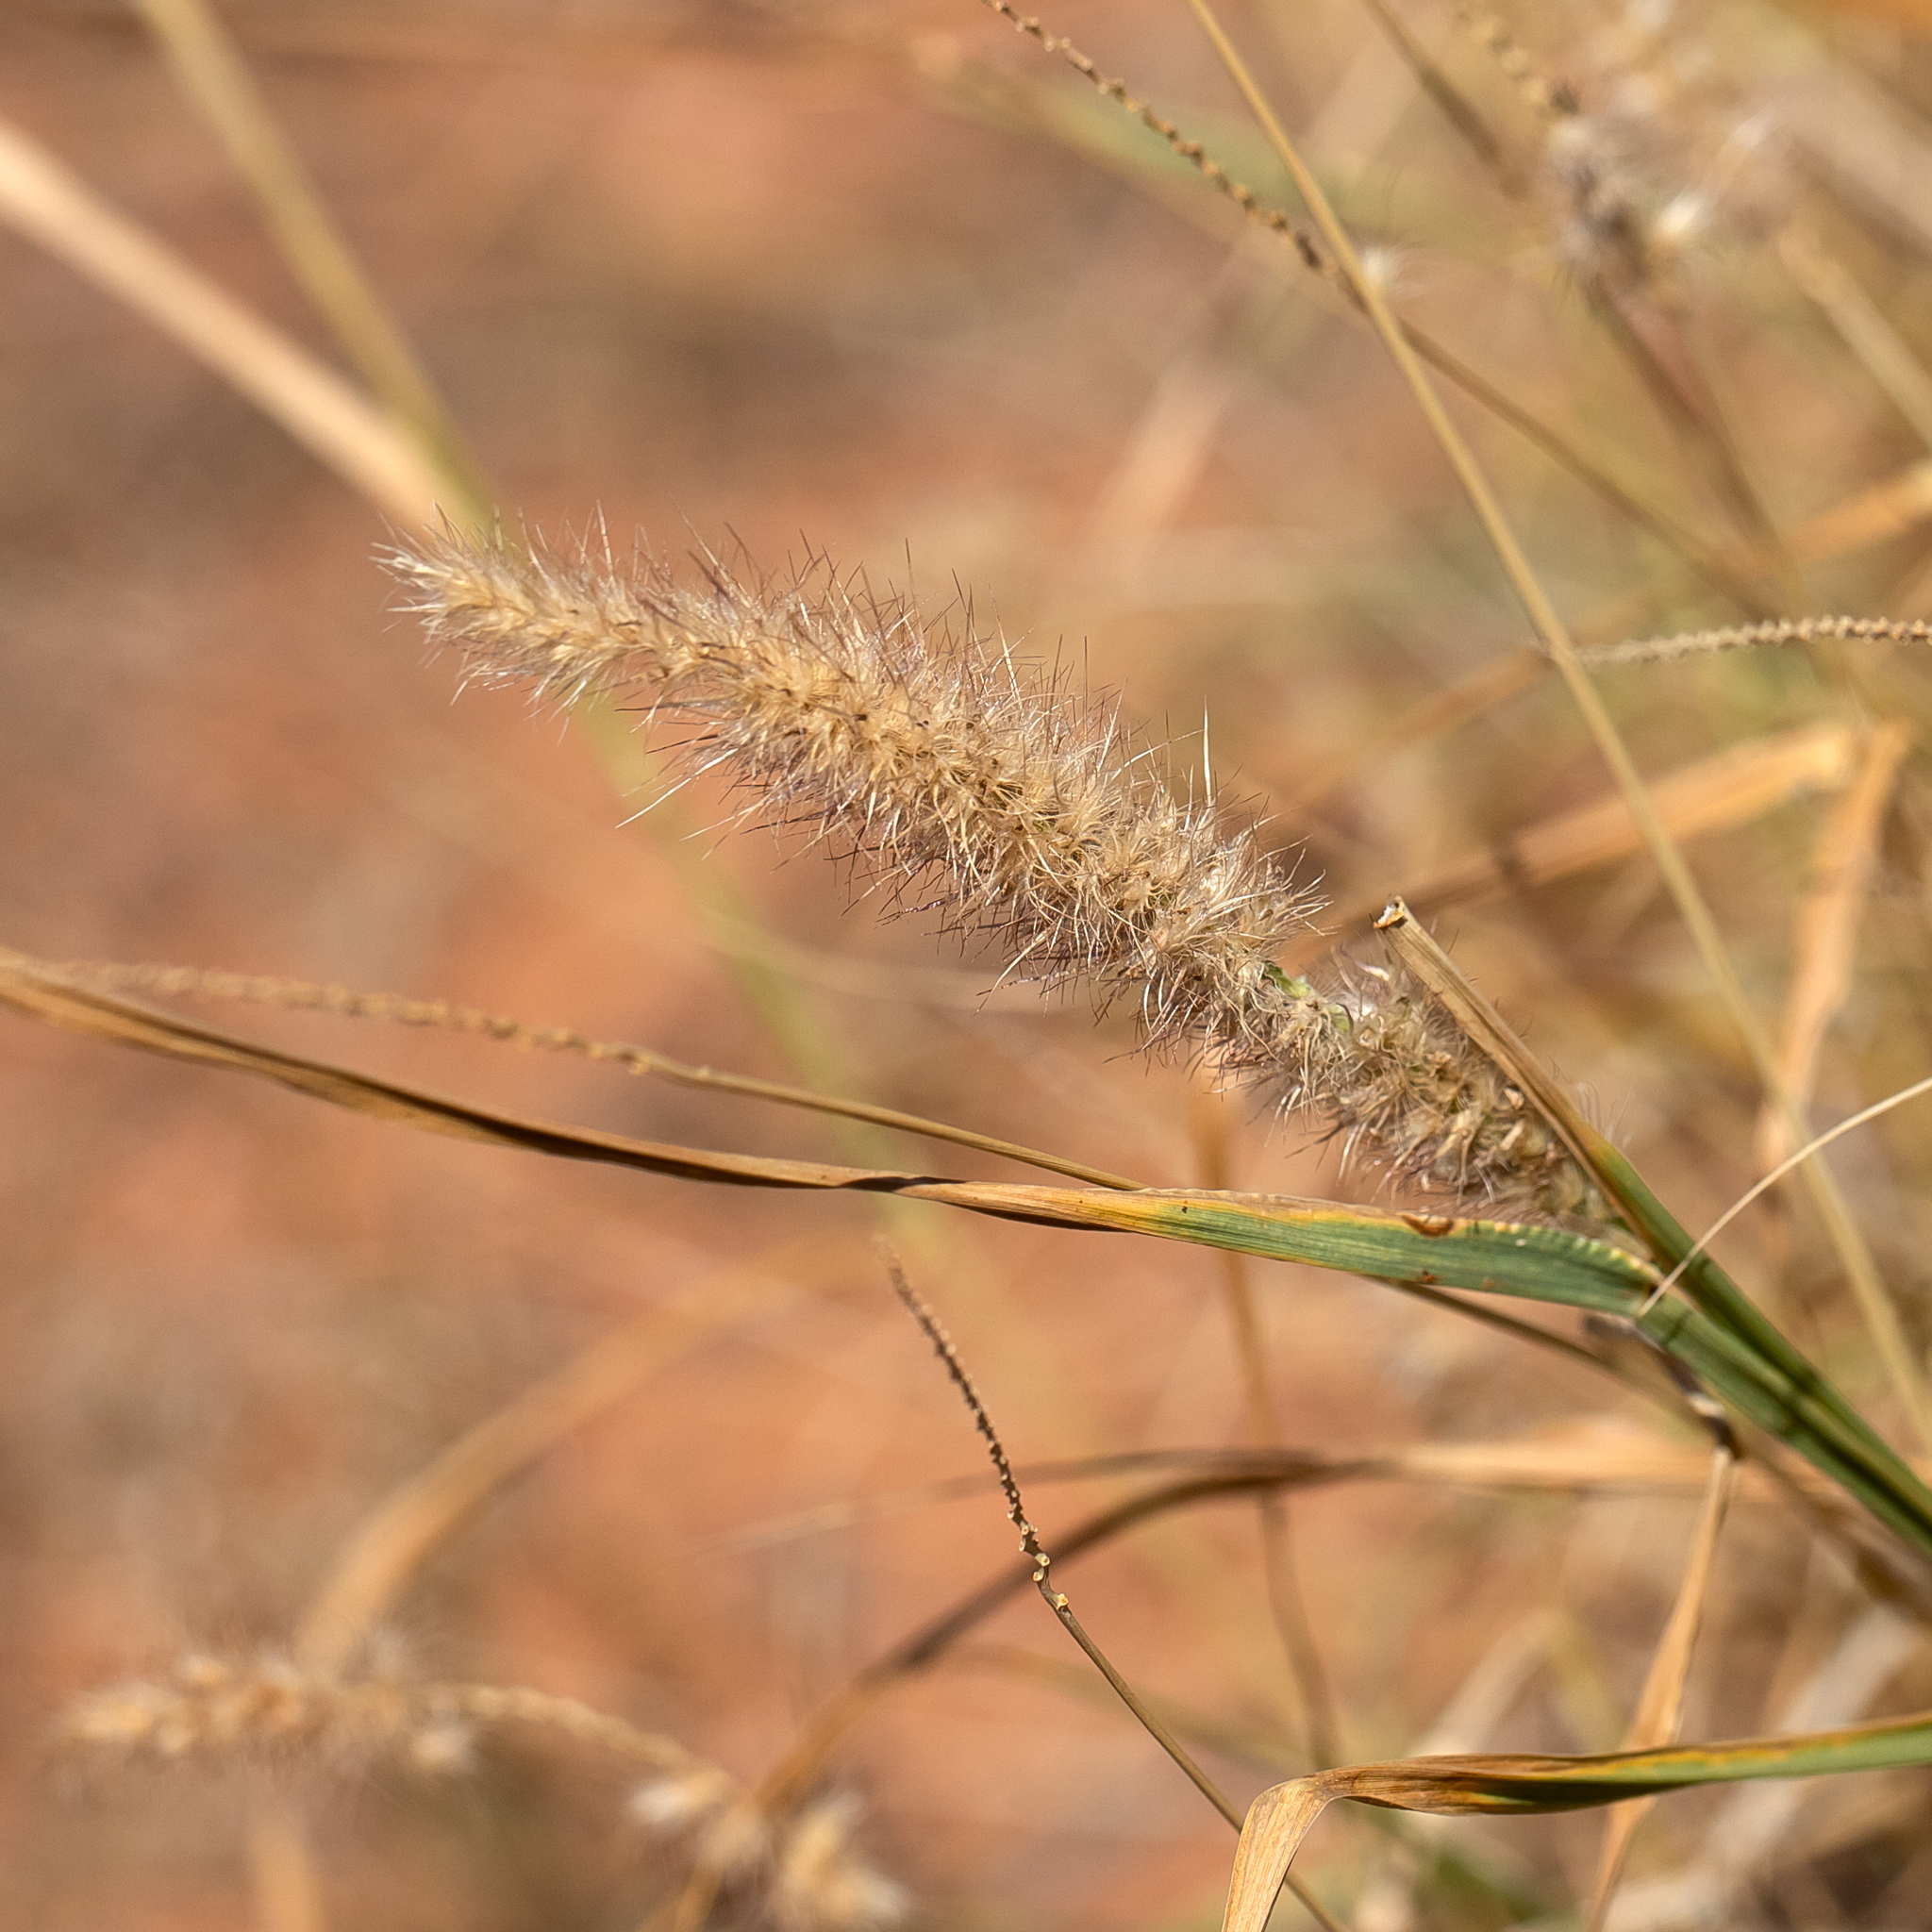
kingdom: Plantae
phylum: Tracheophyta
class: Liliopsida
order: Poales
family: Poaceae
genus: Cenchrus
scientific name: Cenchrus ciliaris
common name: Buffelgrass
